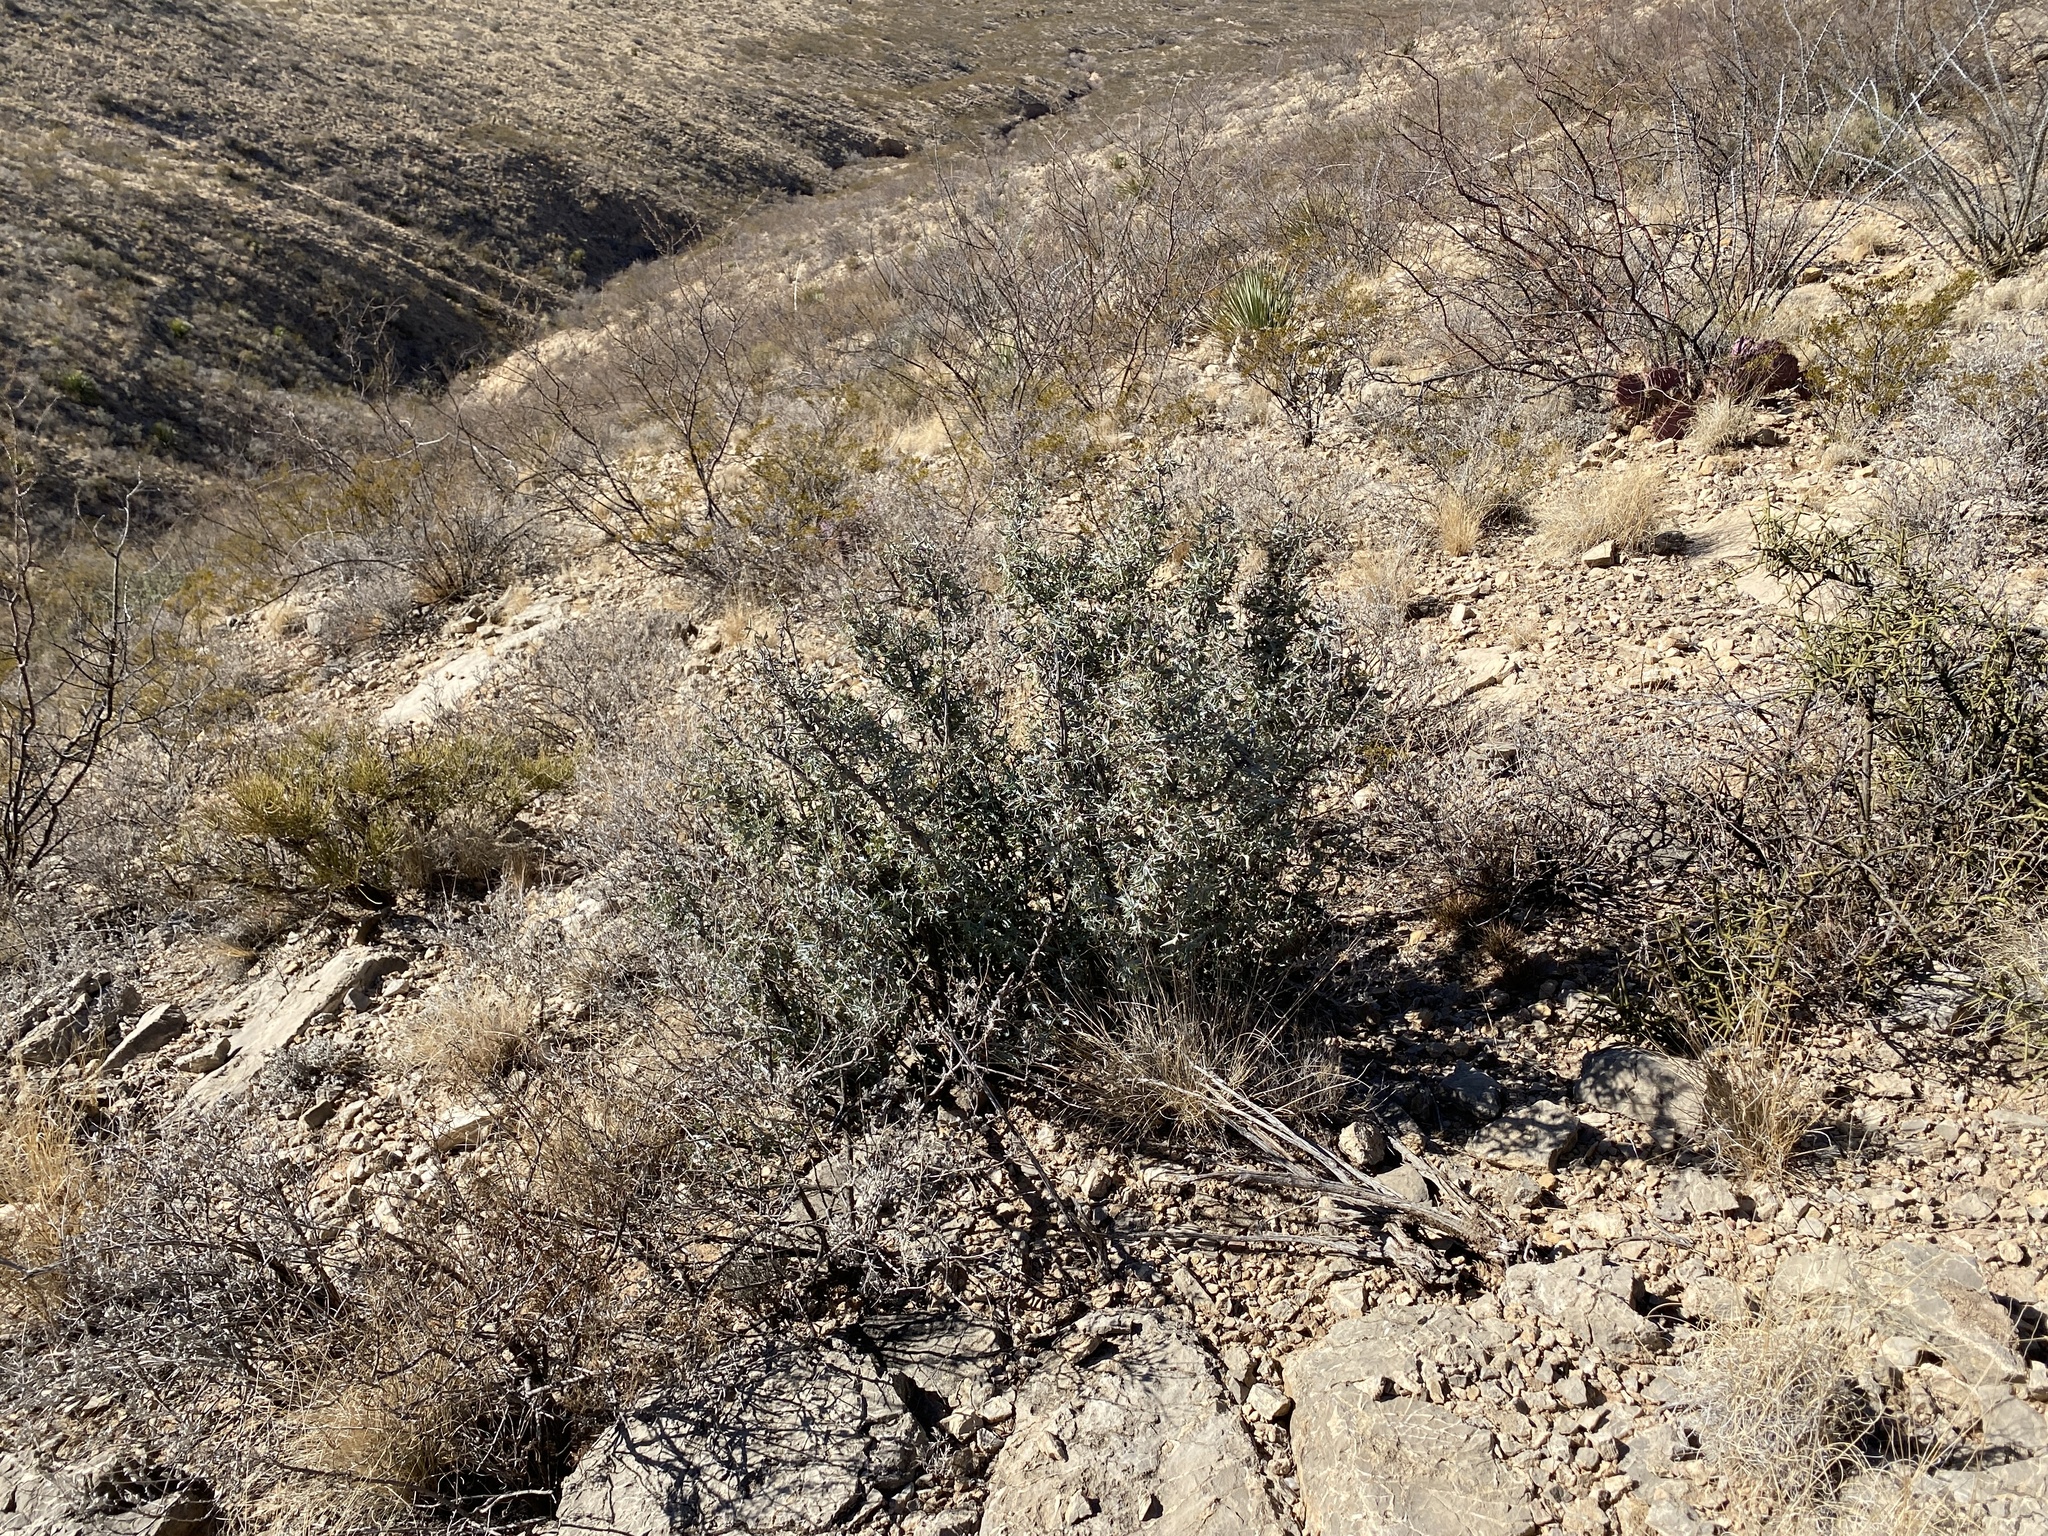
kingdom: Plantae
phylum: Tracheophyta
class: Magnoliopsida
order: Ranunculales
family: Berberidaceae
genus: Alloberberis
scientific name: Alloberberis trifoliolata
